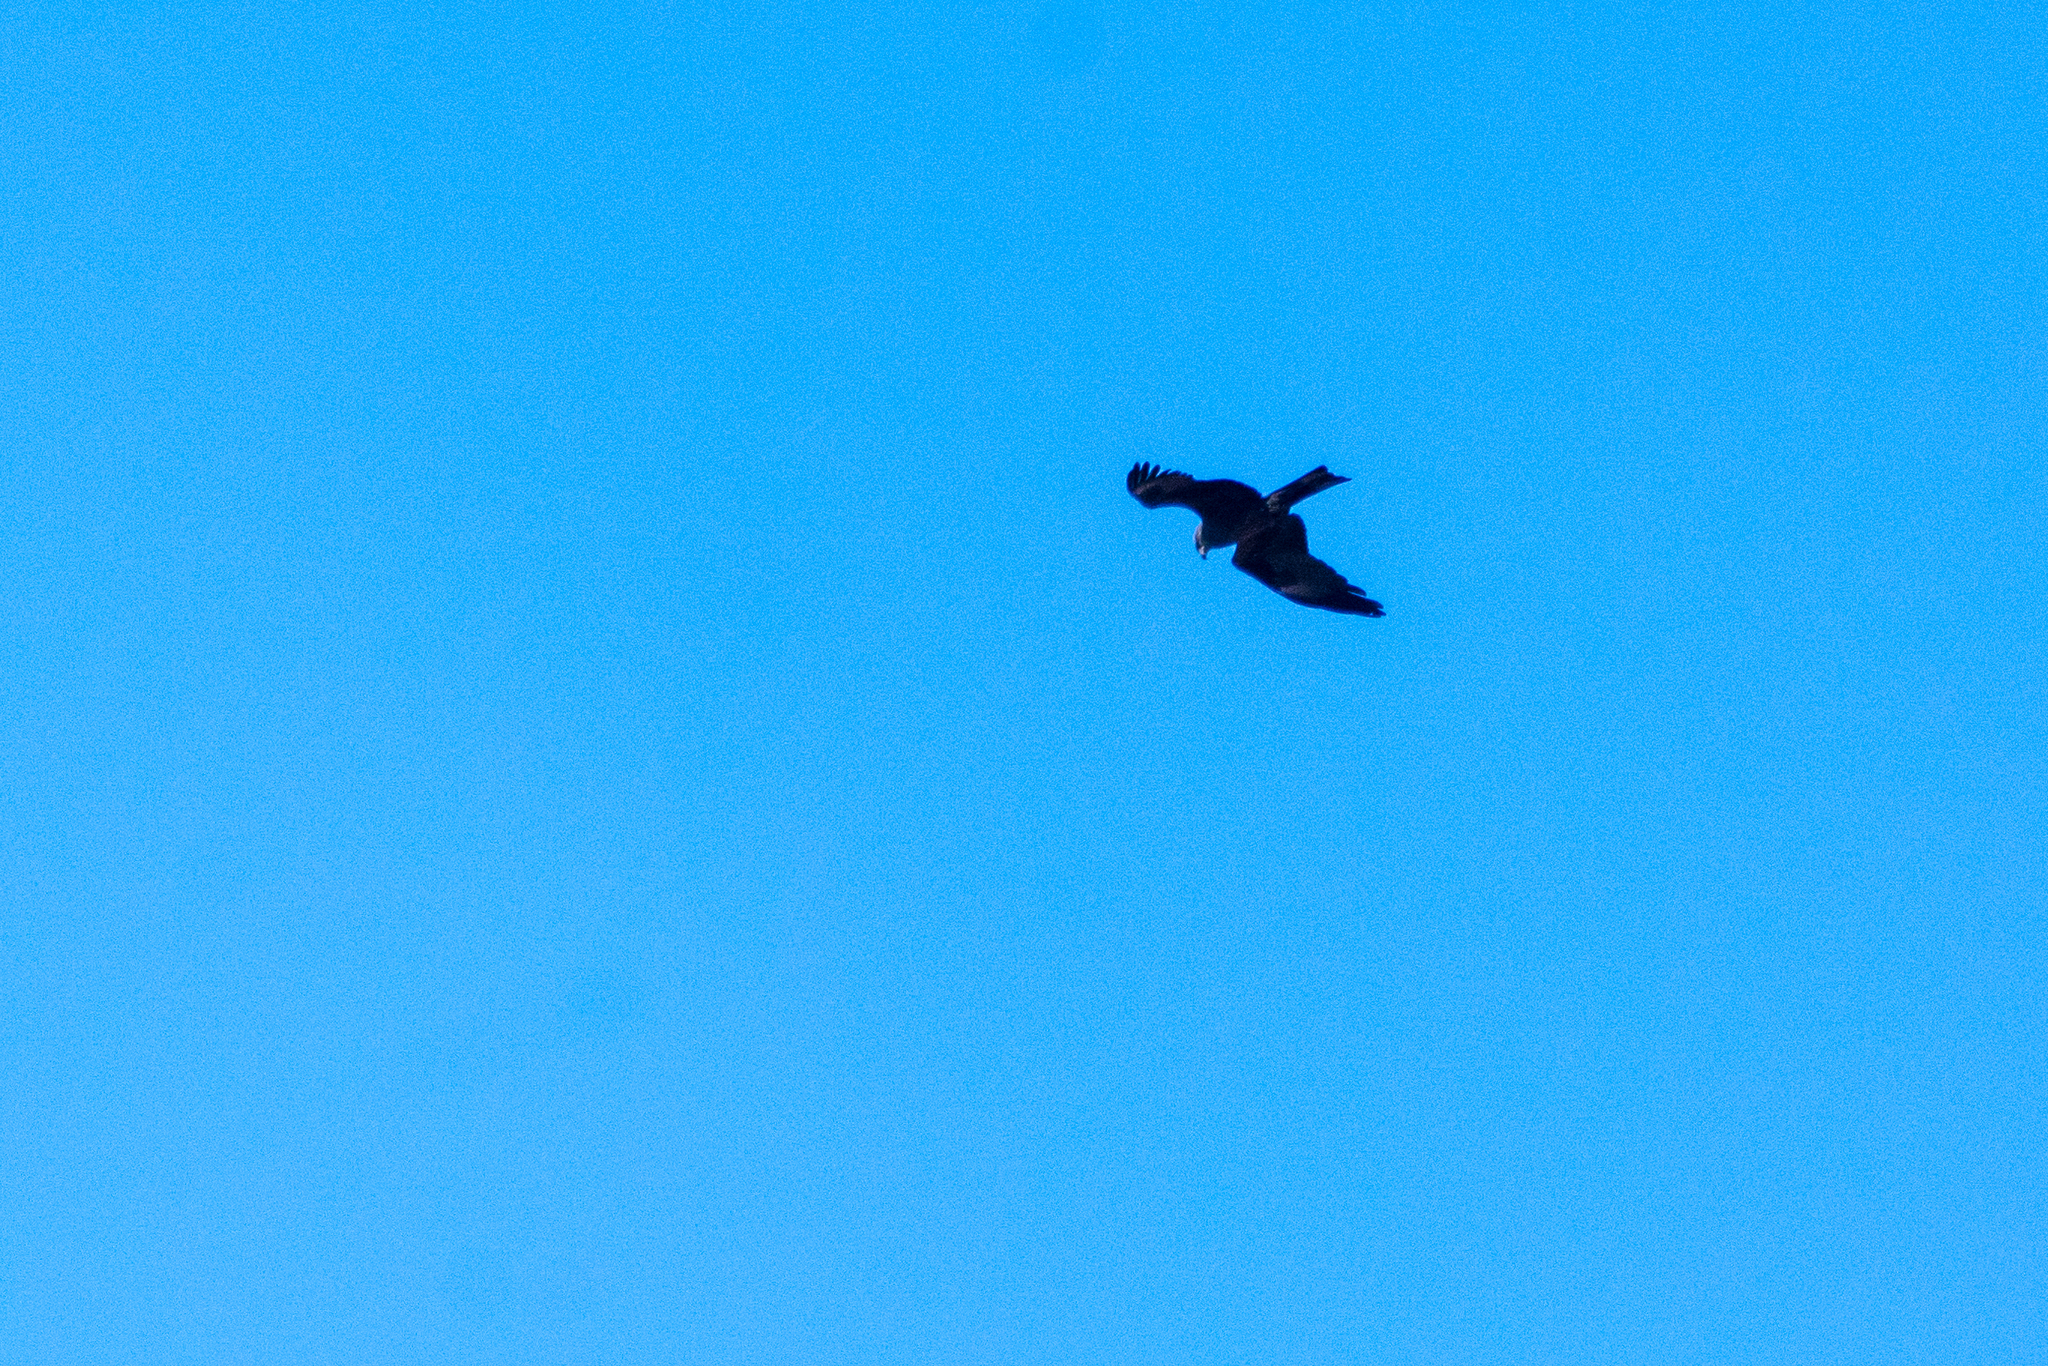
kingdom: Animalia
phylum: Chordata
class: Aves
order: Accipitriformes
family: Accipitridae
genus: Milvus
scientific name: Milvus migrans
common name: Black kite
